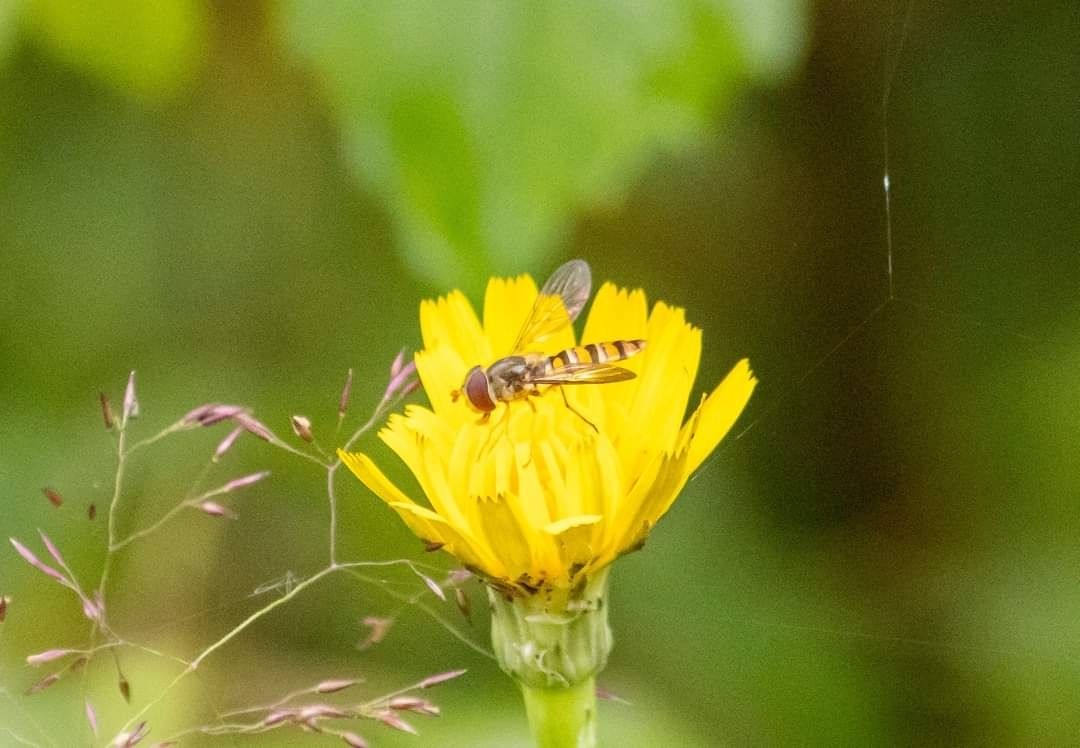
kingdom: Animalia
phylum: Arthropoda
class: Insecta
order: Diptera
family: Syrphidae
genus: Episyrphus
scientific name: Episyrphus balteatus
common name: Marmalade hoverfly
